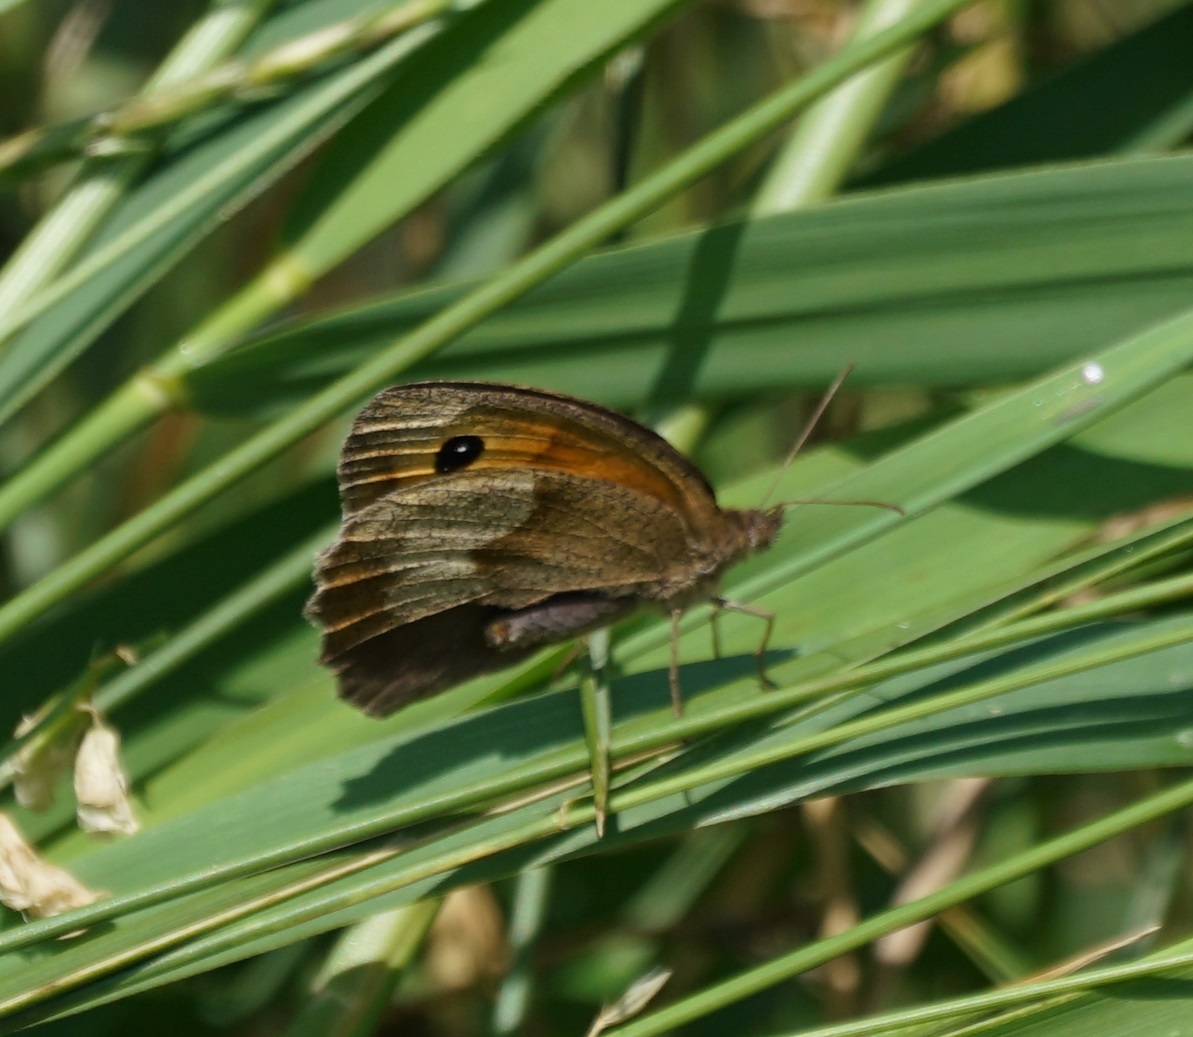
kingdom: Animalia
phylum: Arthropoda
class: Insecta
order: Lepidoptera
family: Nymphalidae
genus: Maniola
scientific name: Maniola jurtina
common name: Meadow brown
